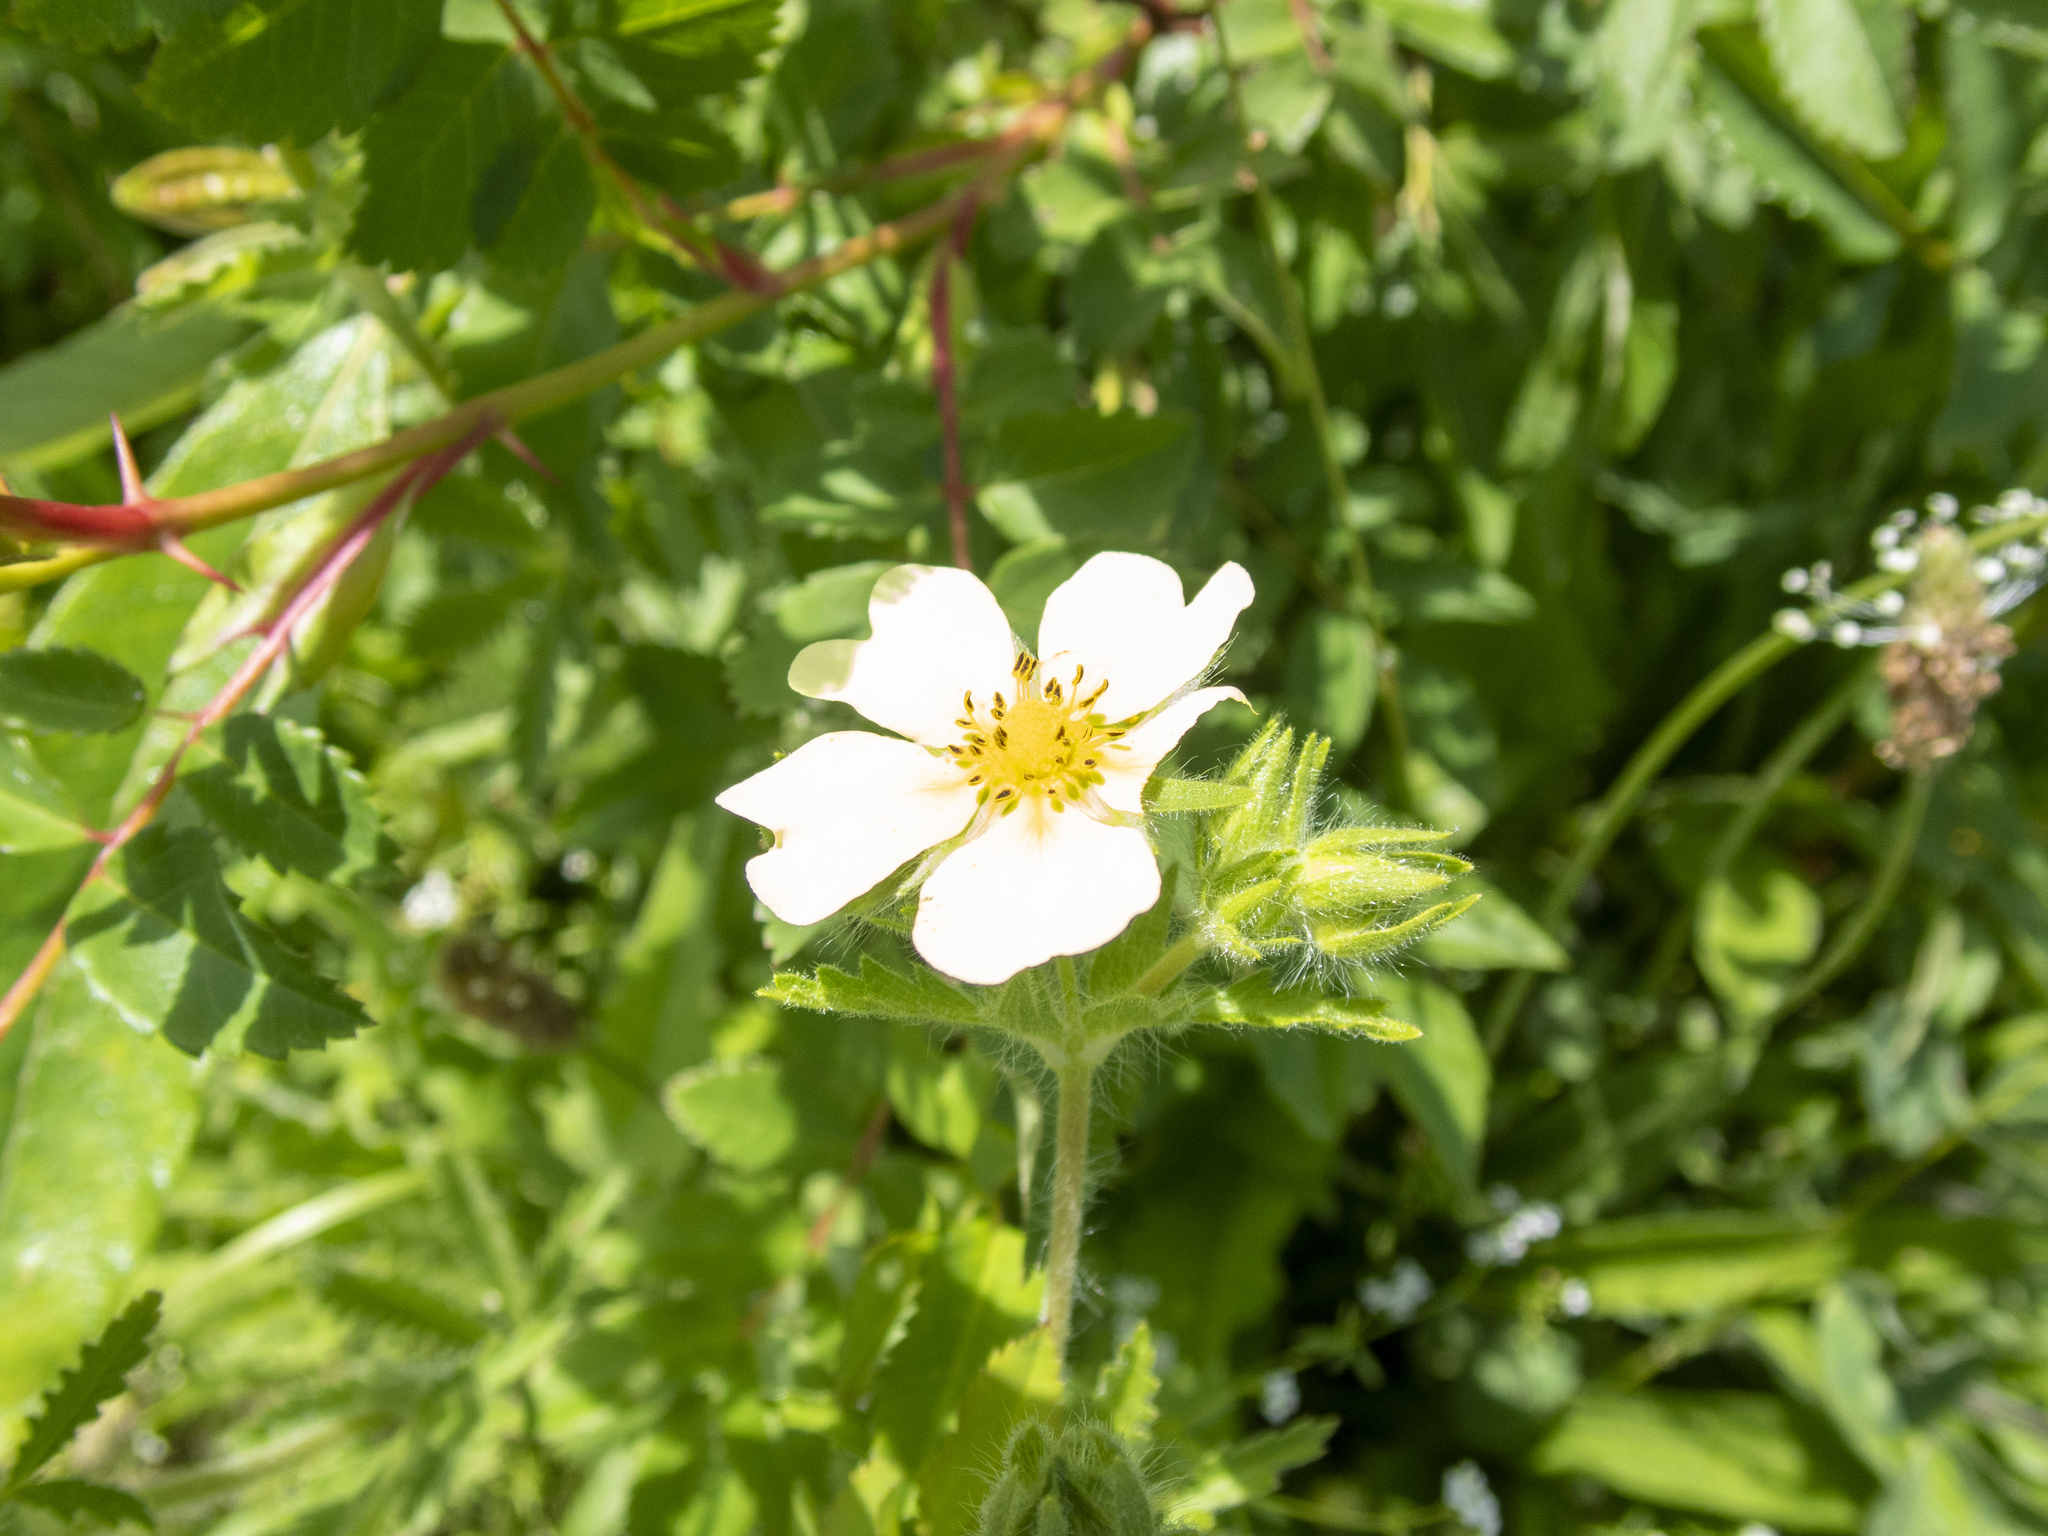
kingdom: Plantae
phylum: Tracheophyta
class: Magnoliopsida
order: Rosales
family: Rosaceae
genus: Potentilla
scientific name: Potentilla recta
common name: Sulphur cinquefoil
